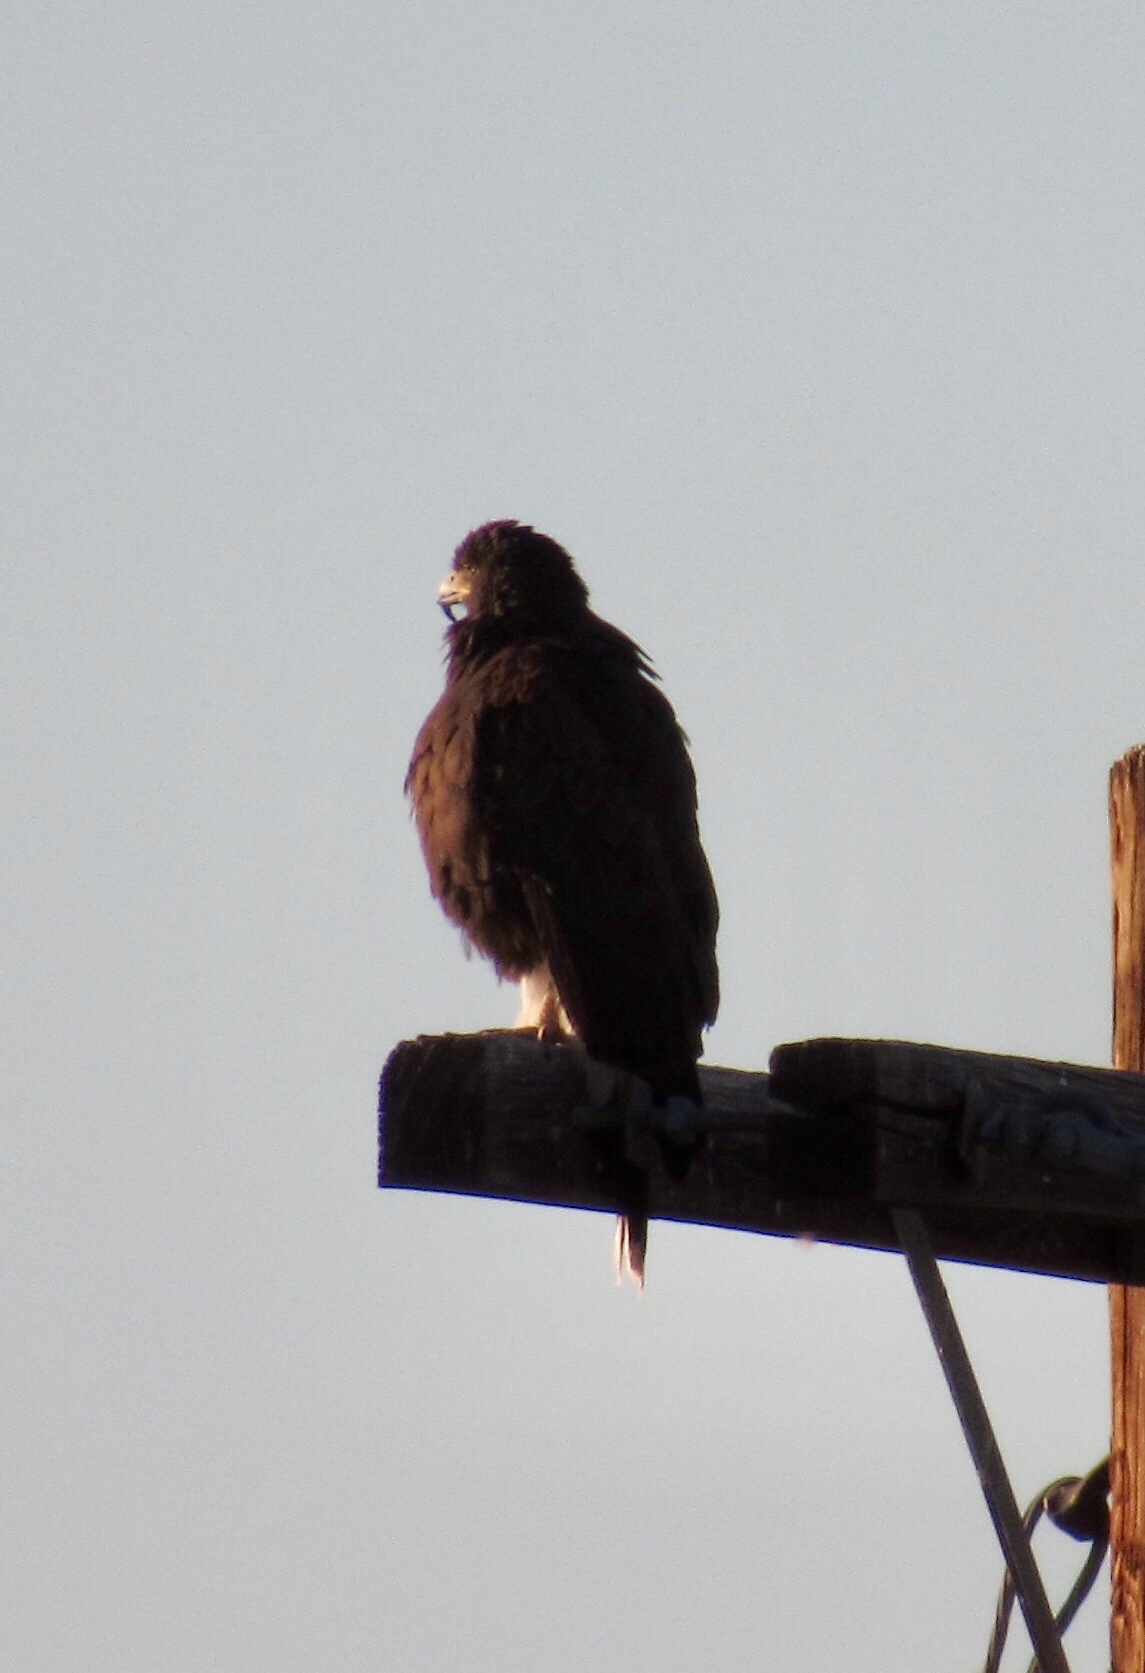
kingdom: Animalia
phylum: Chordata
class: Aves
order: Accipitriformes
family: Accipitridae
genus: Parabuteo
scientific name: Parabuteo unicinctus
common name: Harris's hawk
